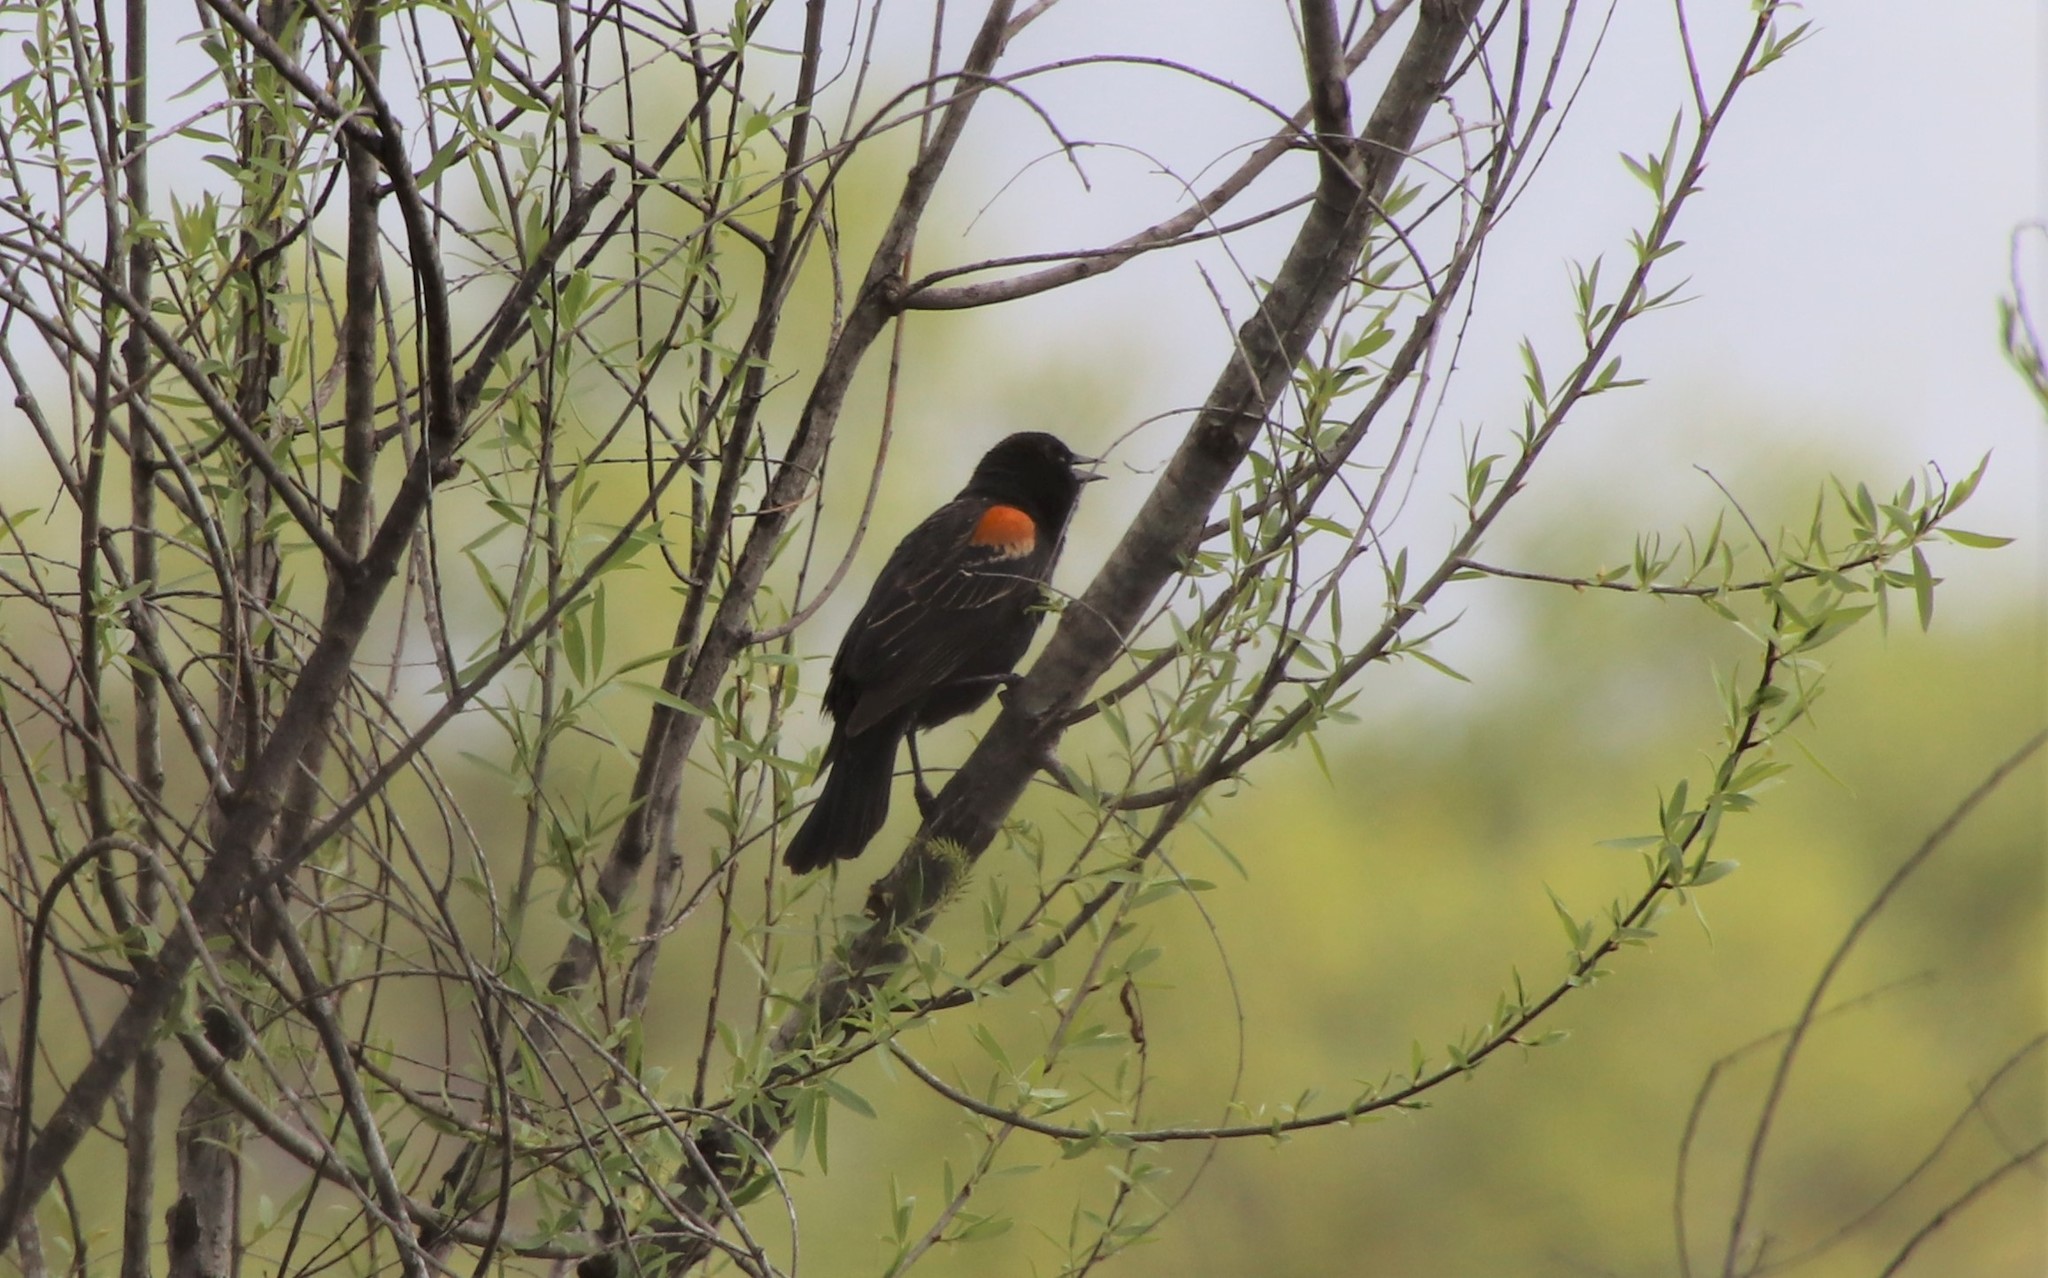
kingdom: Animalia
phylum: Chordata
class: Aves
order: Passeriformes
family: Icteridae
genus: Agelaius
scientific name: Agelaius phoeniceus
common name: Red-winged blackbird
